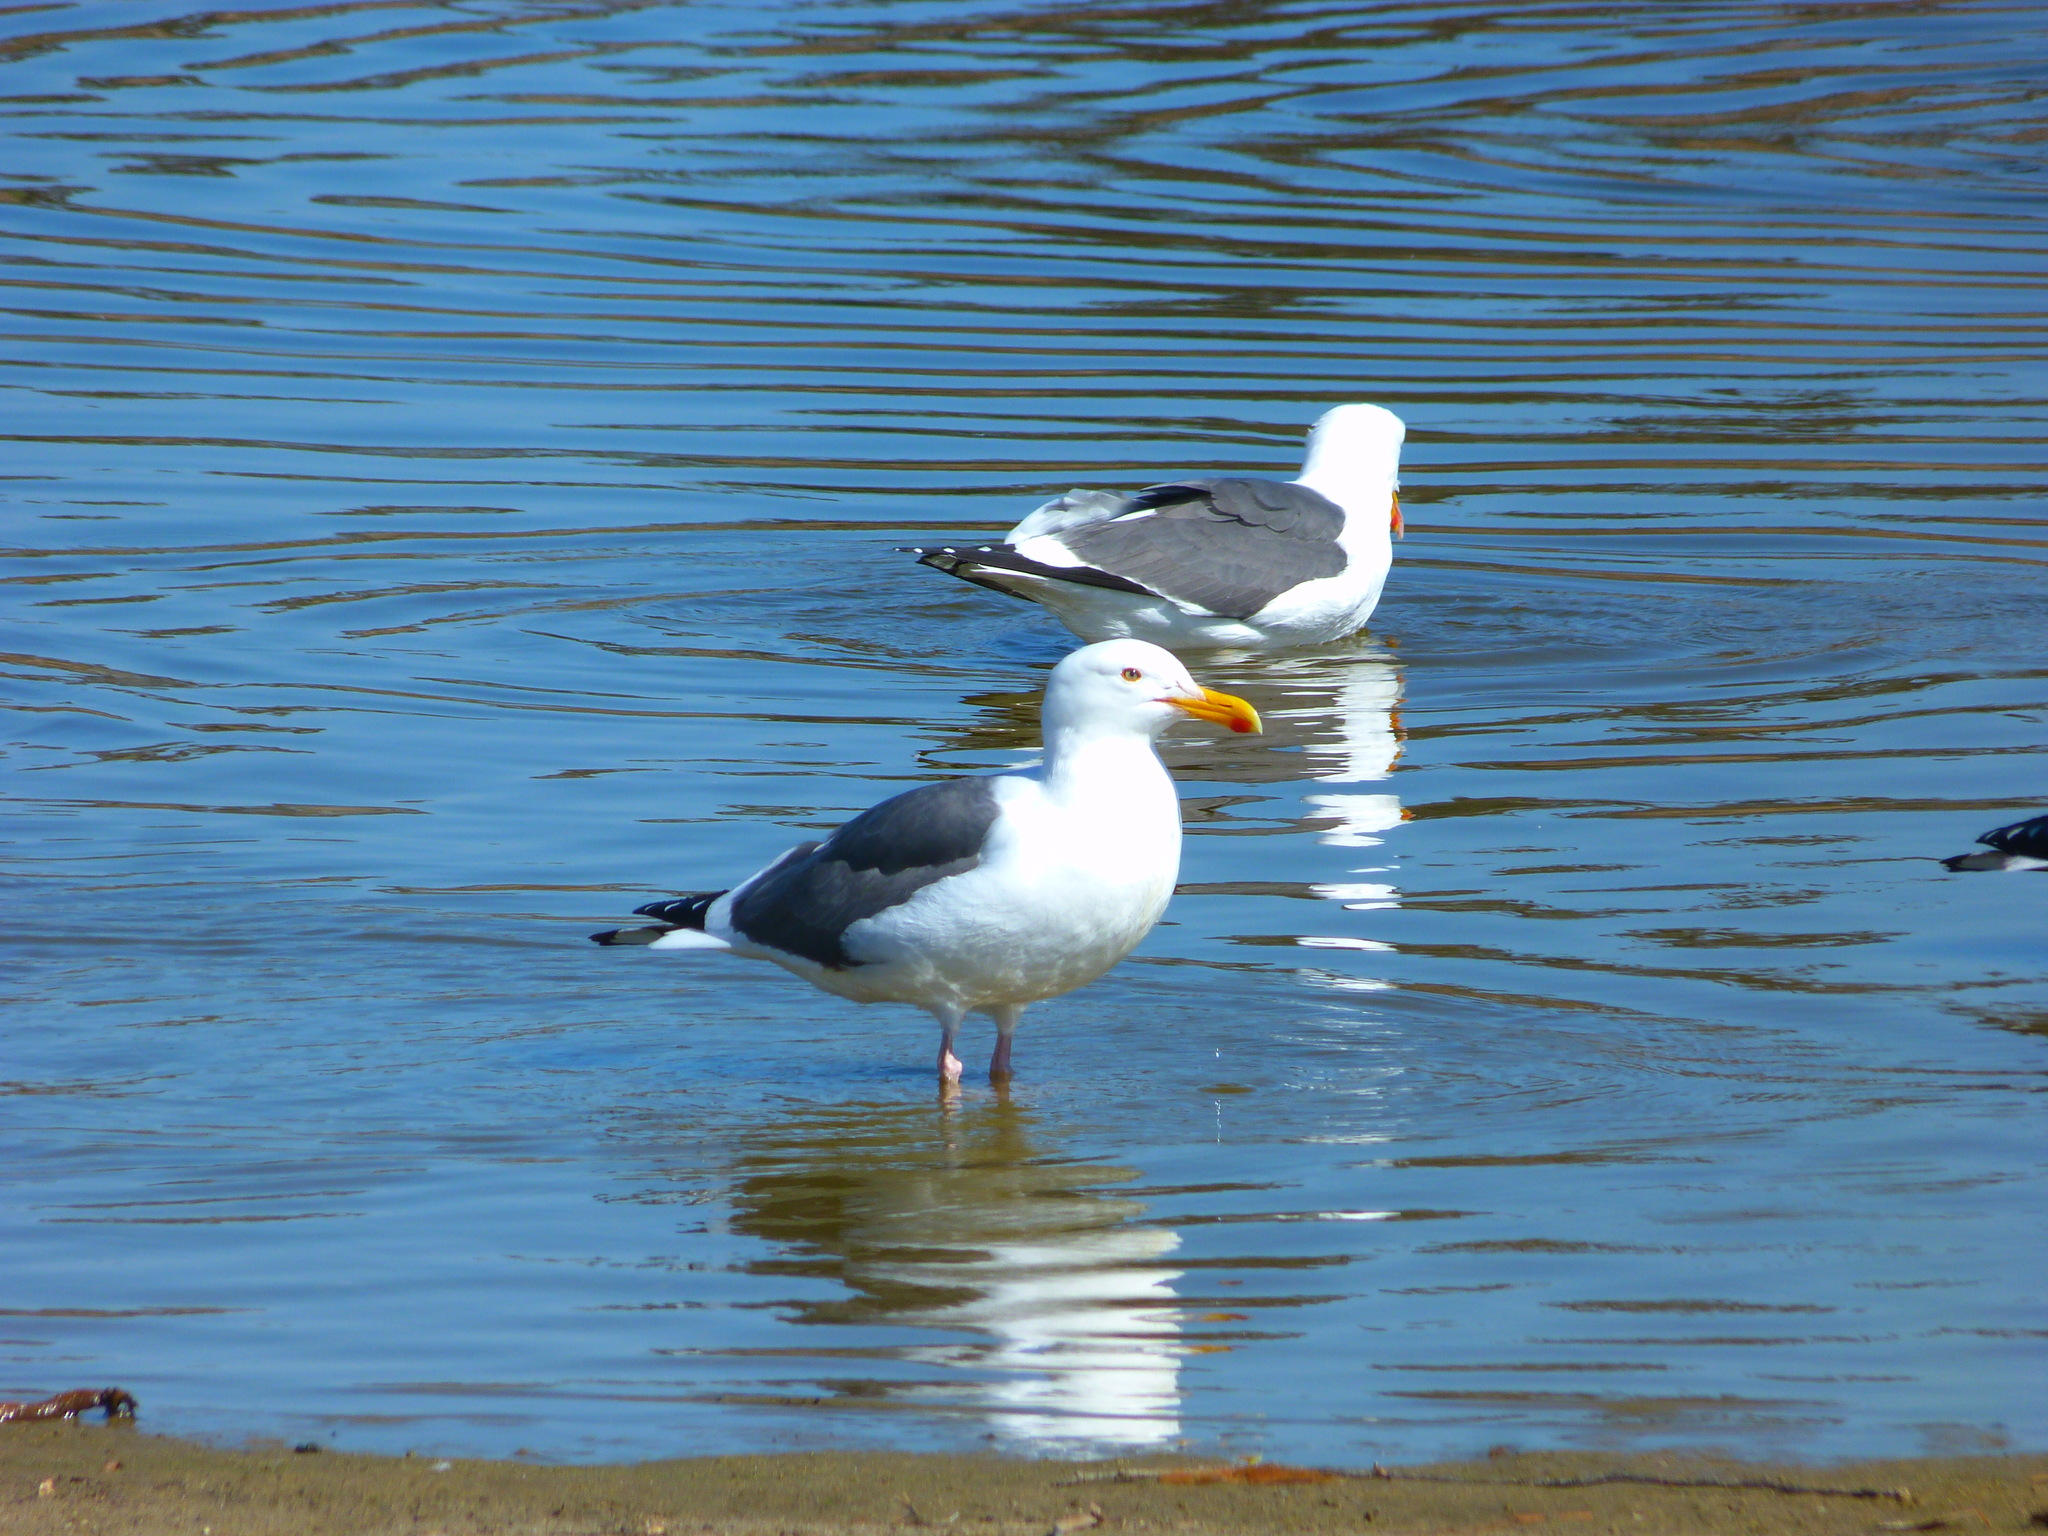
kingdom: Animalia
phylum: Chordata
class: Aves
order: Charadriiformes
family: Laridae
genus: Larus
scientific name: Larus occidentalis
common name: Western gull
